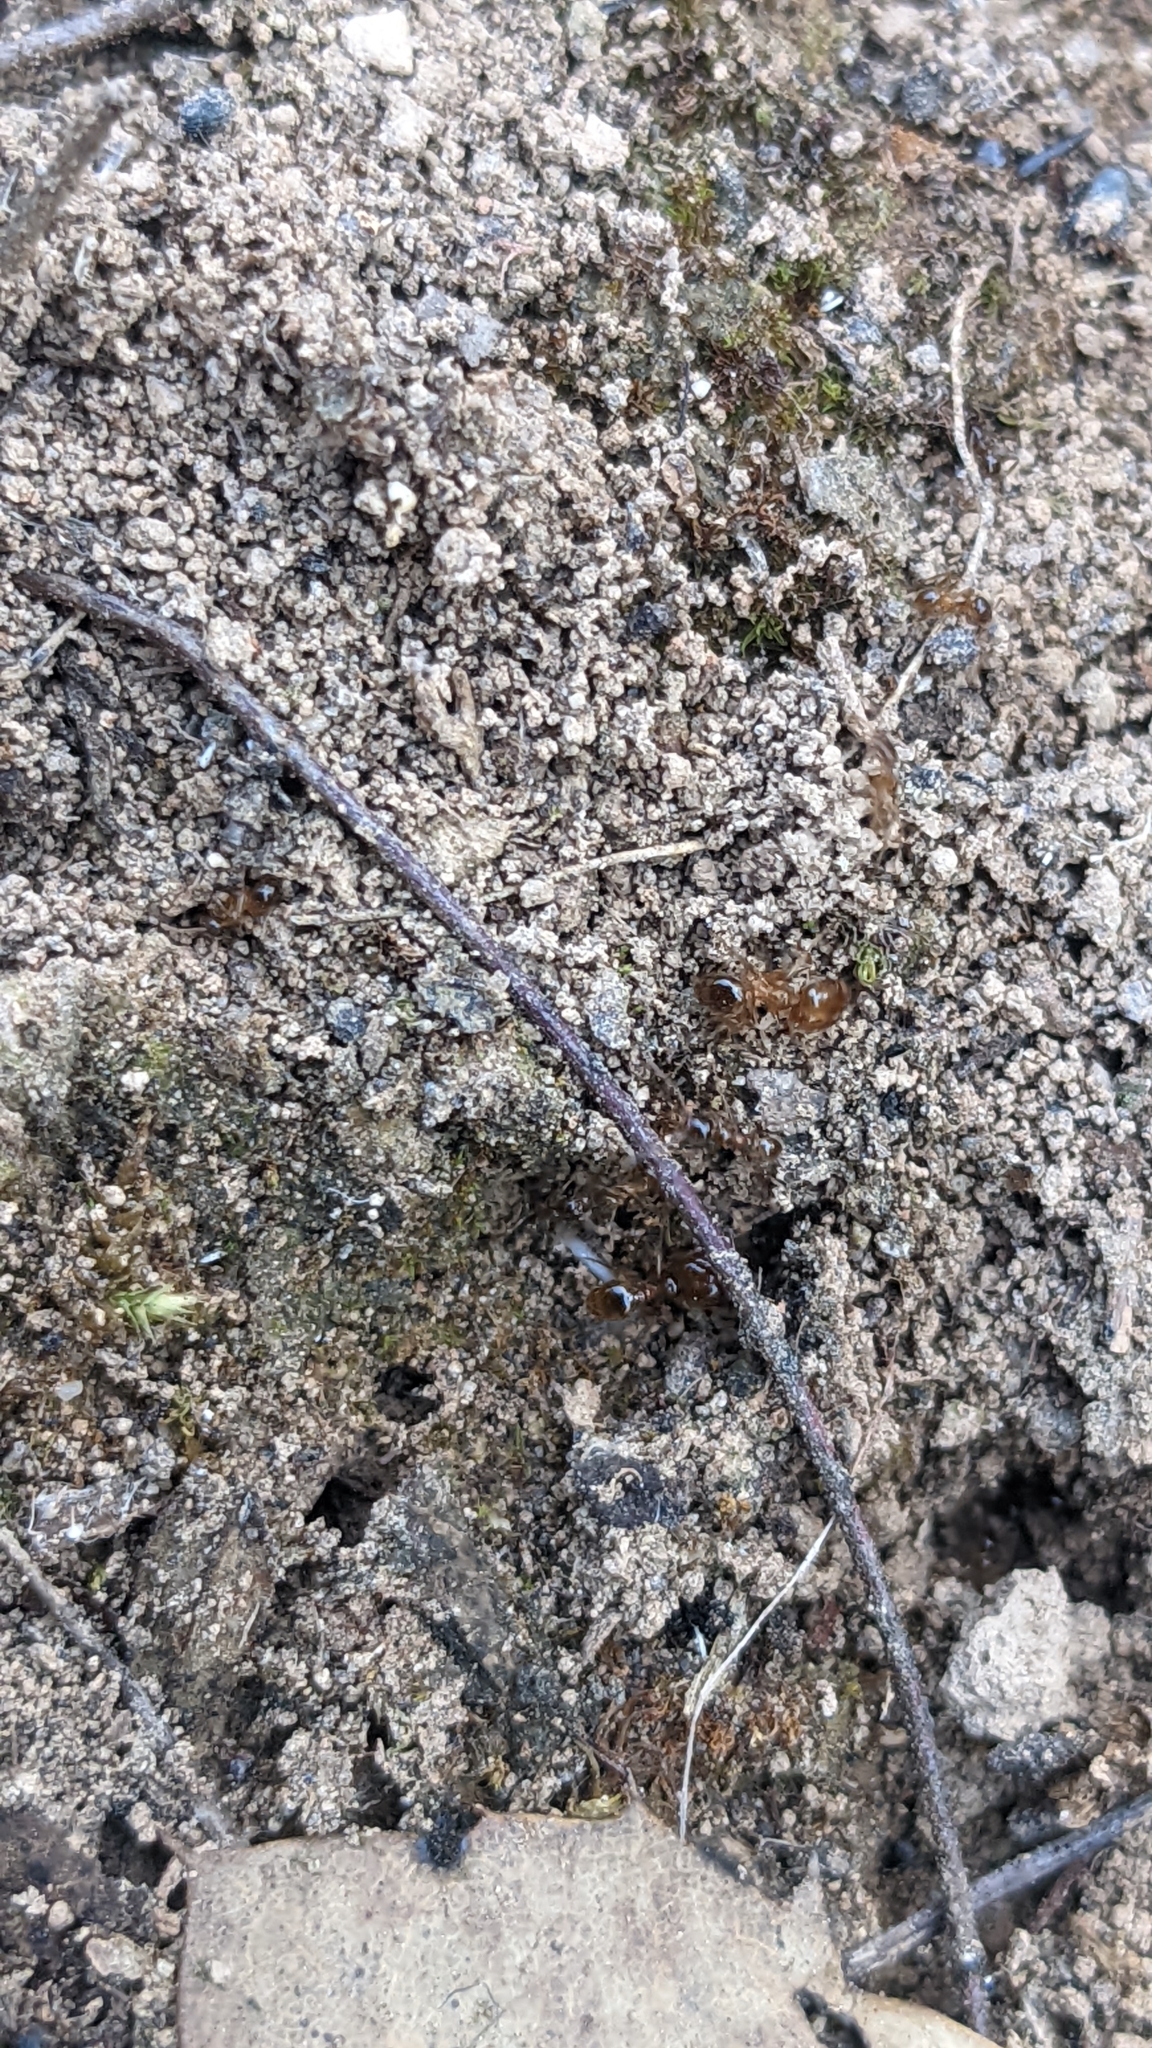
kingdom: Animalia
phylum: Arthropoda
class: Insecta
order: Hymenoptera
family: Formicidae
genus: Pheidole
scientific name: Pheidole pallidula
